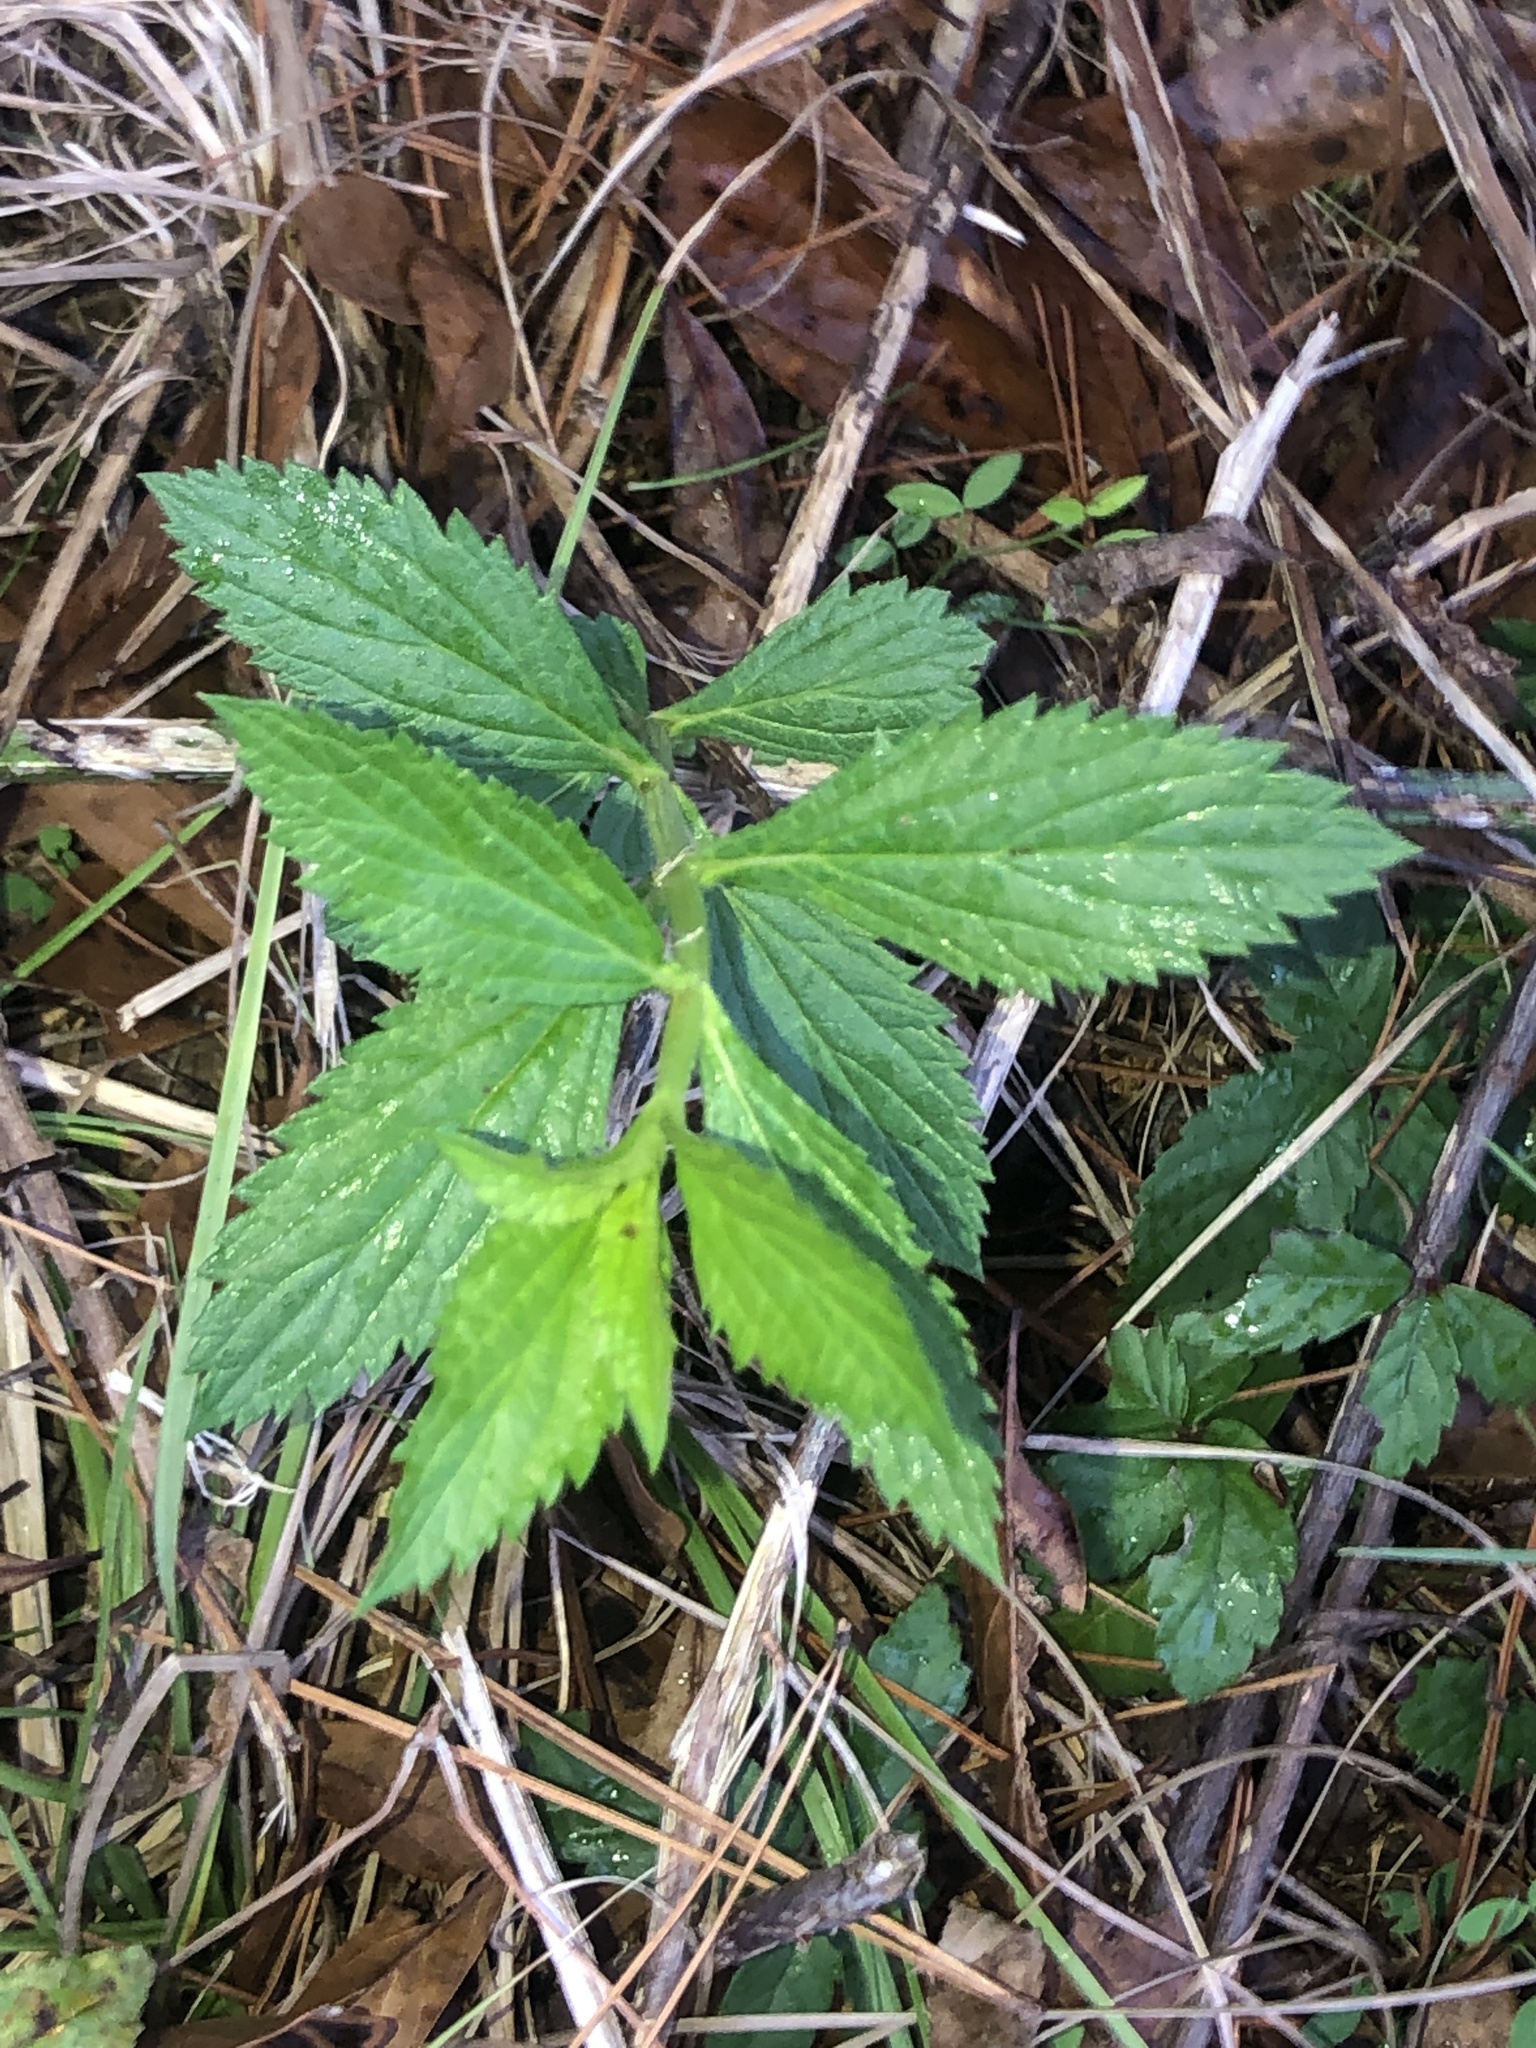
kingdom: Plantae
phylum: Tracheophyta
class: Magnoliopsida
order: Lamiales
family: Verbenaceae
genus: Verbena
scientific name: Verbena brasiliensis
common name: Brazilian vervain
